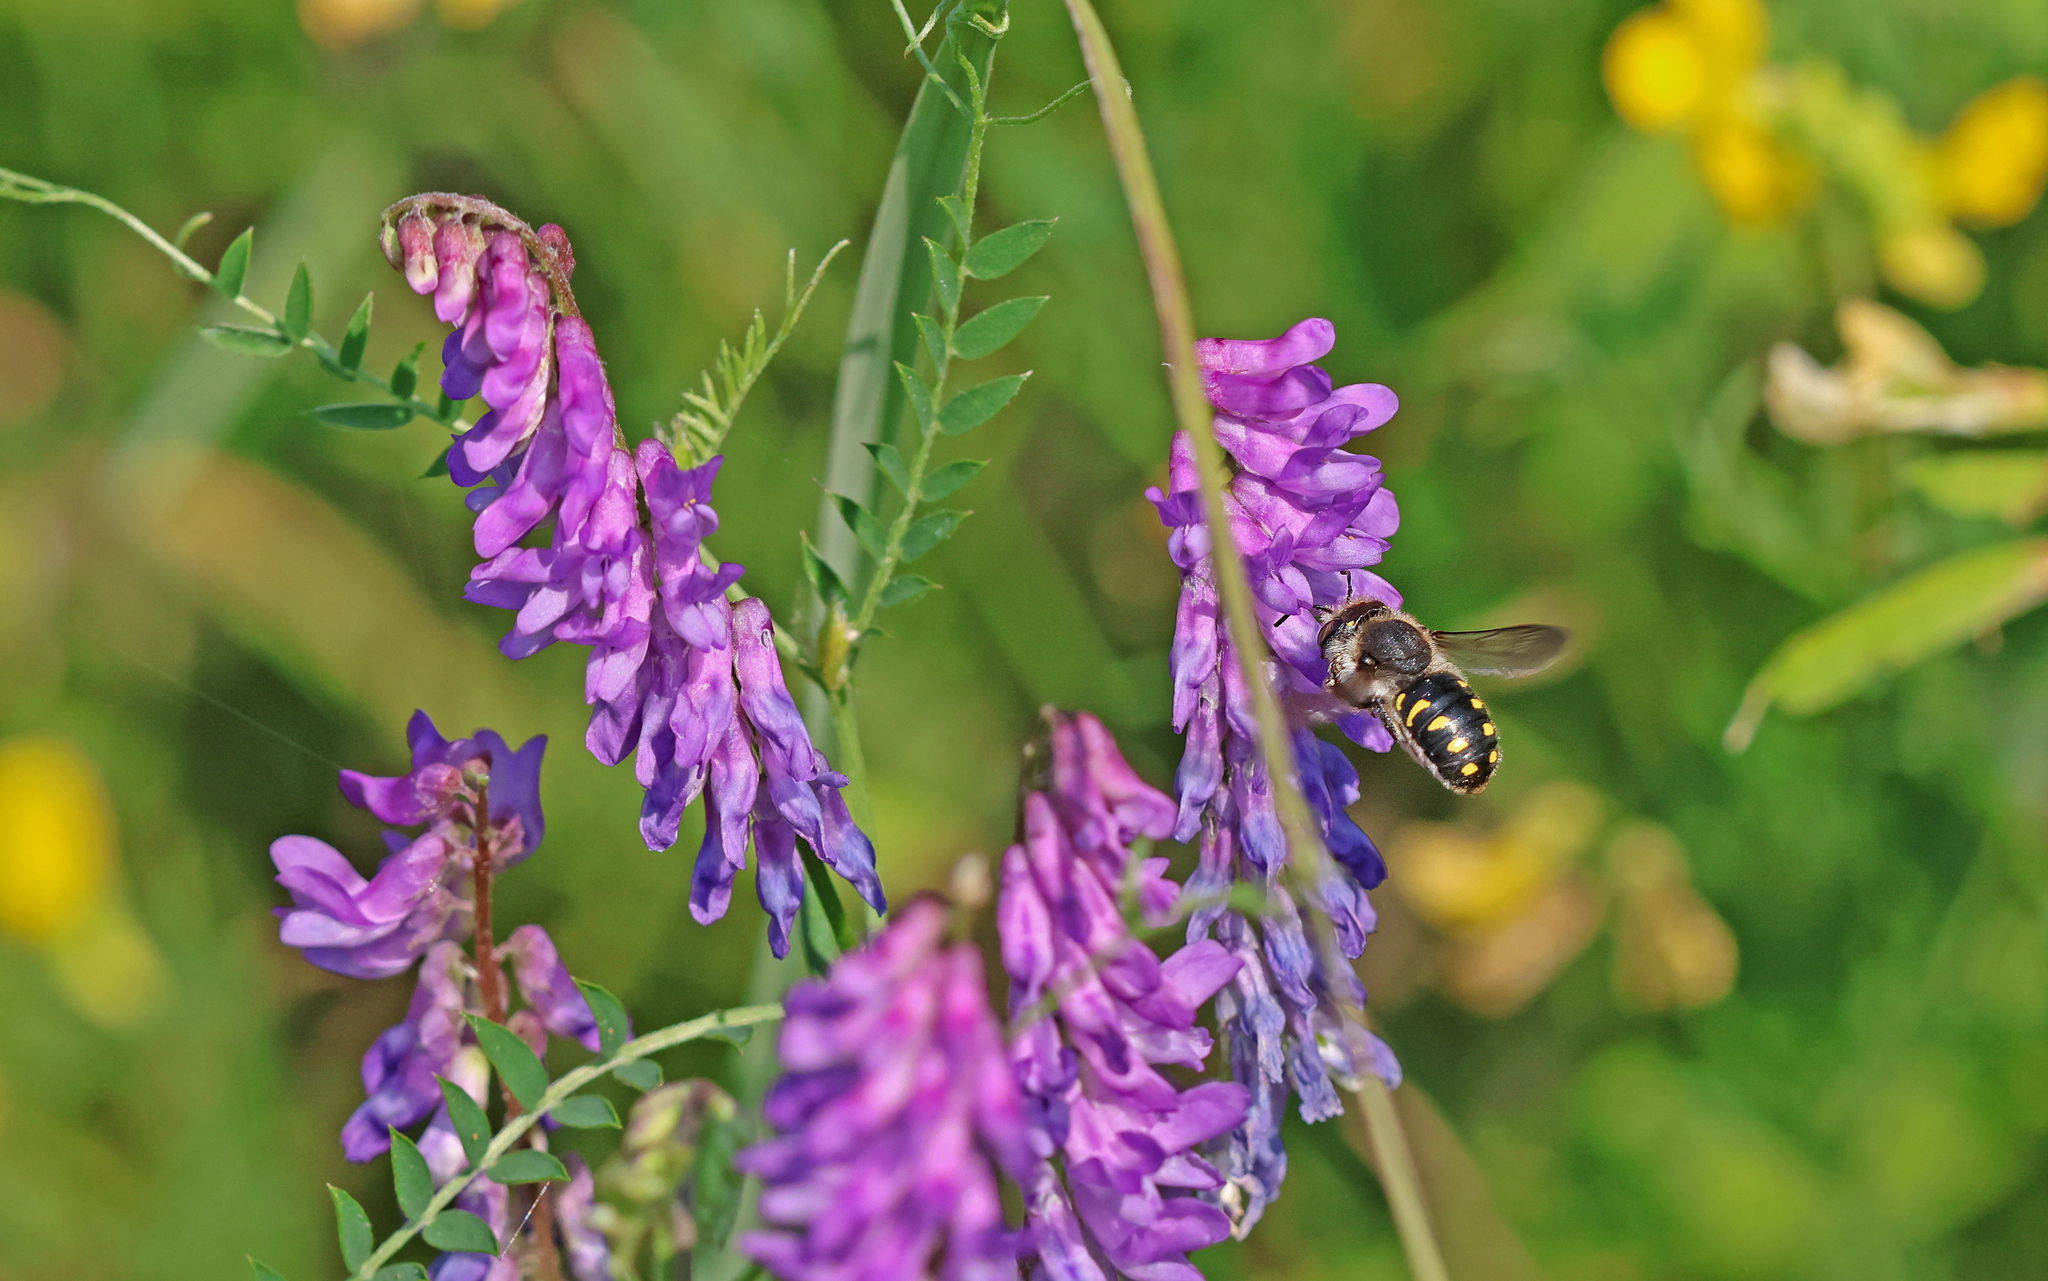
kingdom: Animalia
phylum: Arthropoda
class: Insecta
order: Hymenoptera
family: Megachilidae
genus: Anthidium
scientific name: Anthidium septemspinosum
